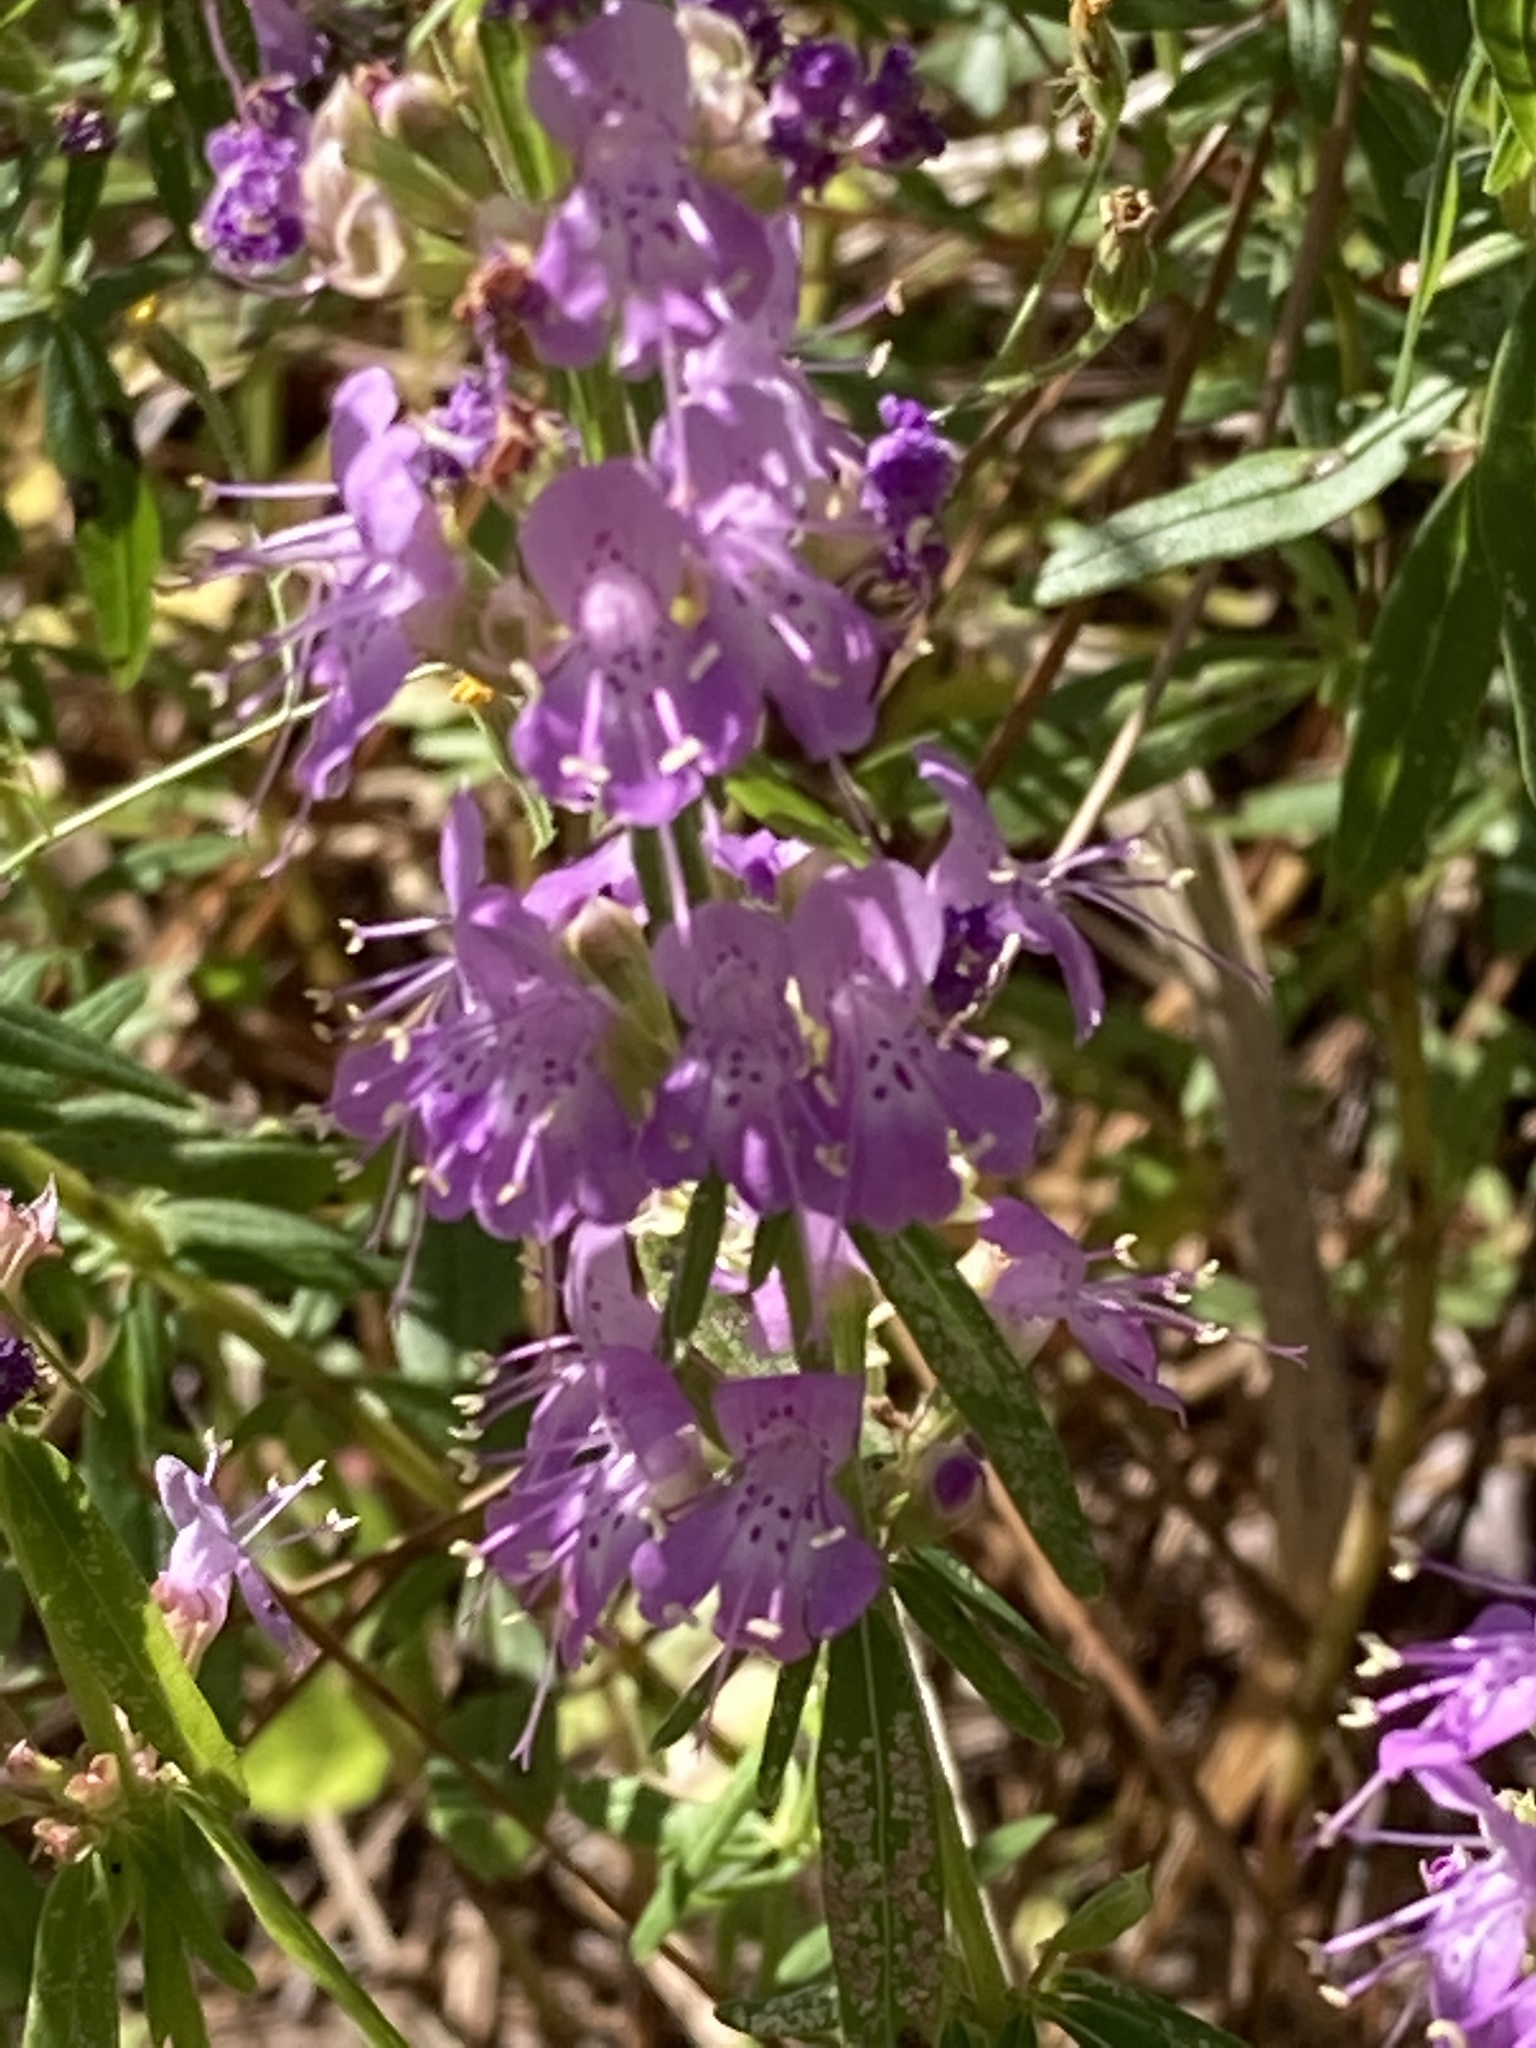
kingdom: Plantae
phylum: Tracheophyta
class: Magnoliopsida
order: Lamiales
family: Lamiaceae
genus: Dicerandra
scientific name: Dicerandra densiflora
